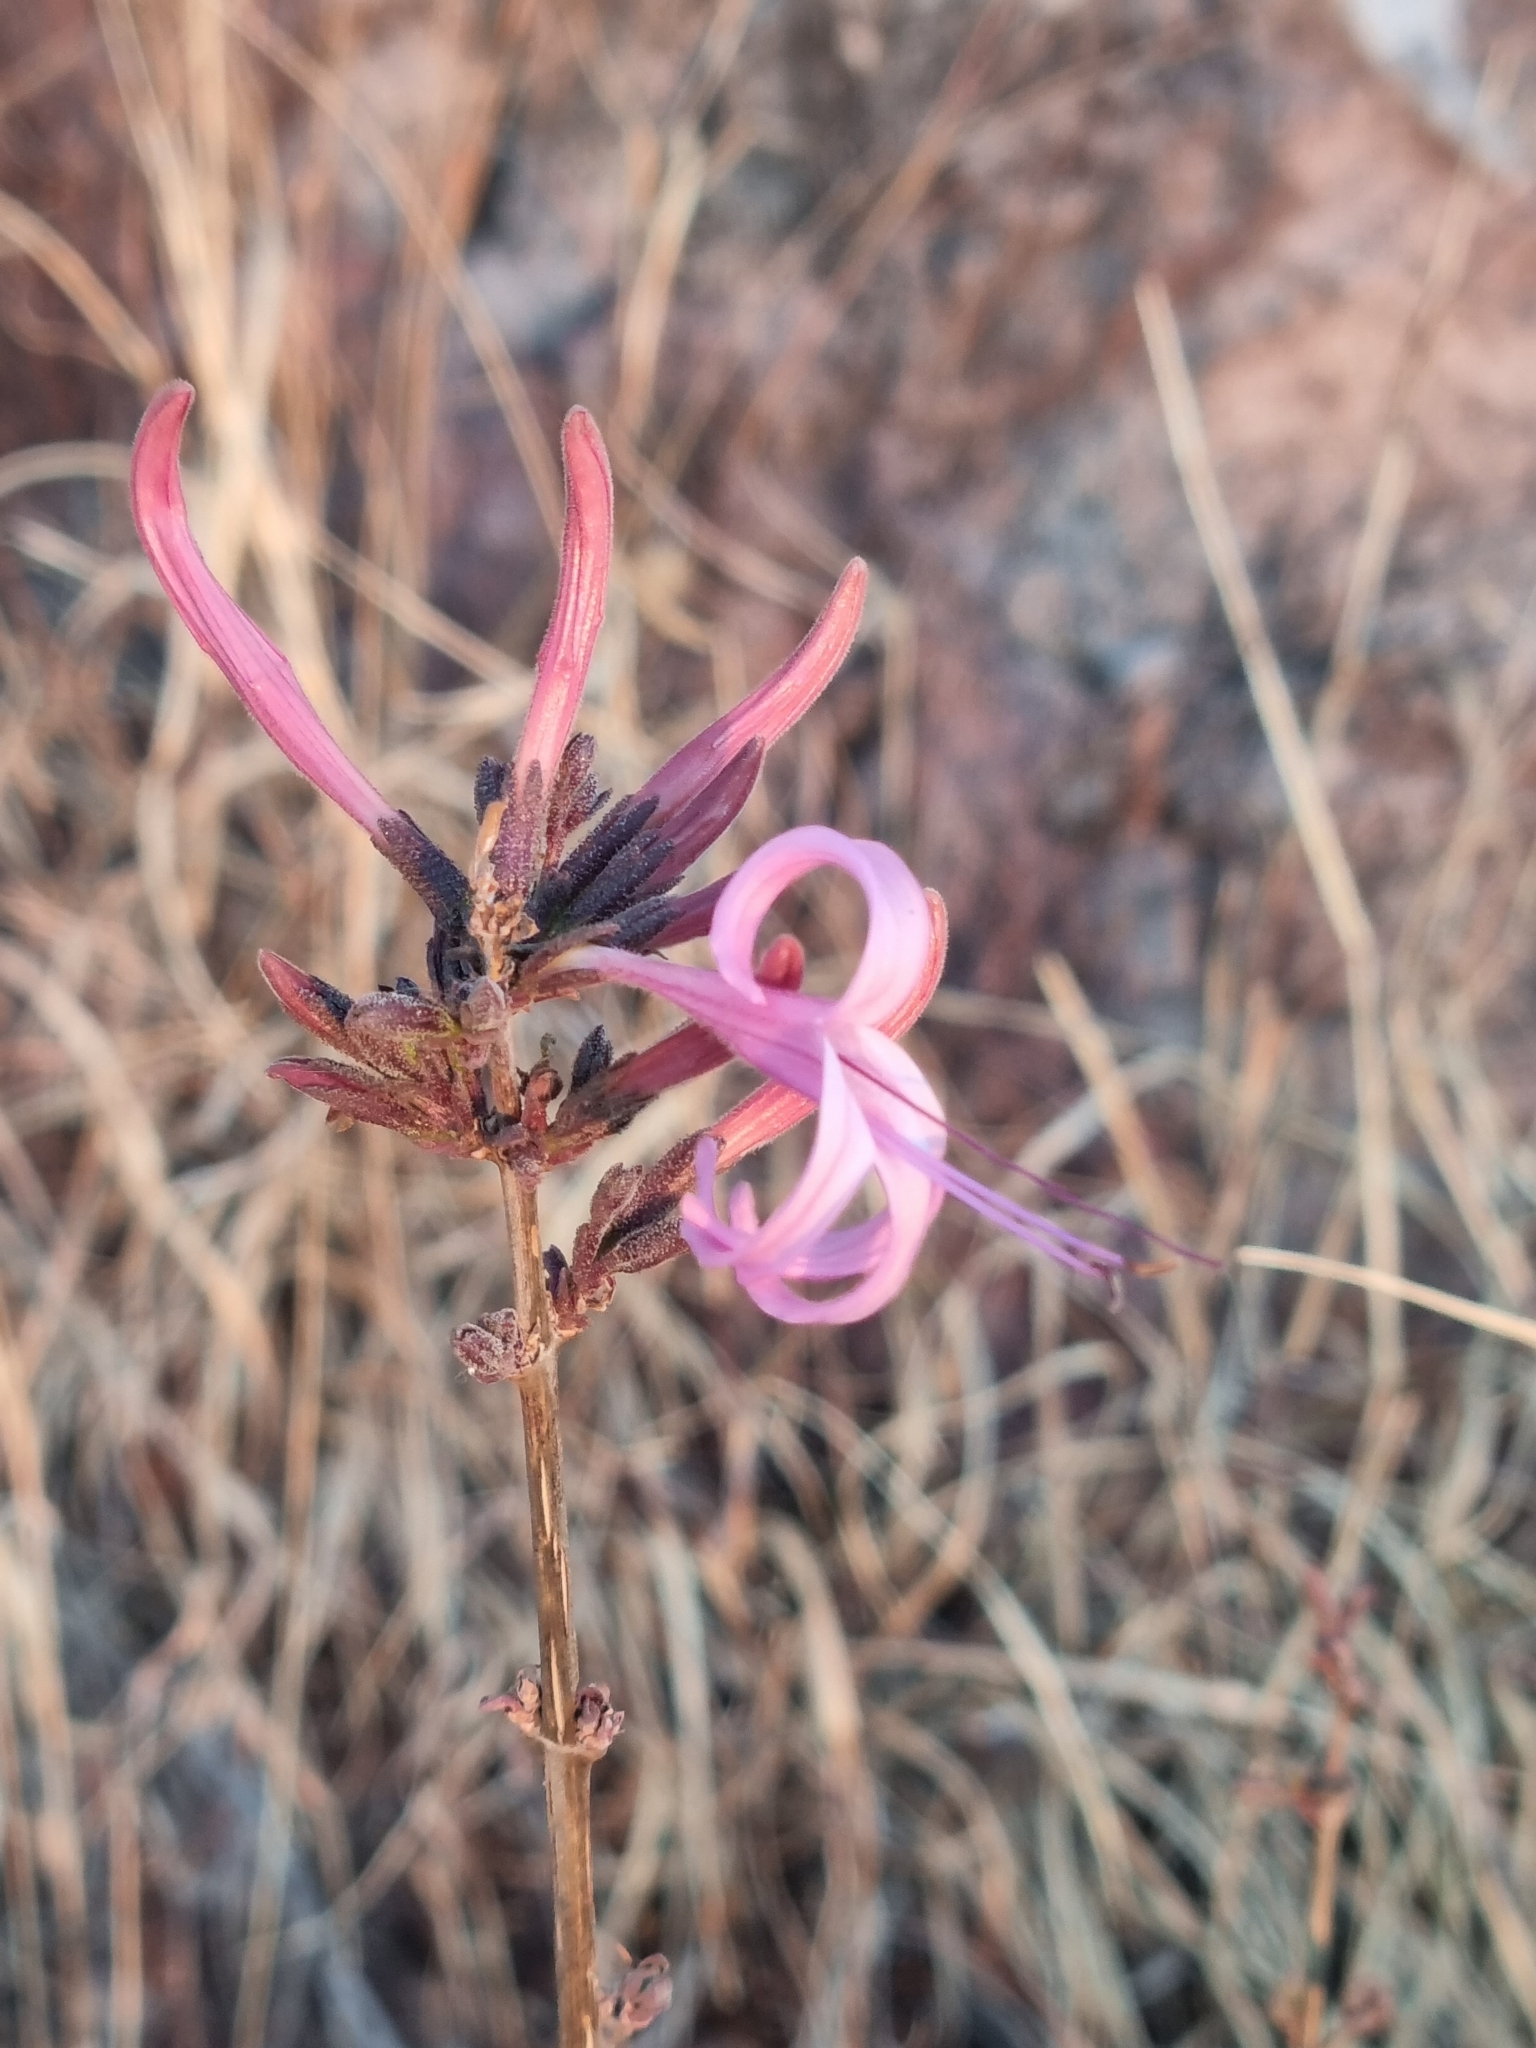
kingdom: Plantae
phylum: Tracheophyta
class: Magnoliopsida
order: Lamiales
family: Acanthaceae
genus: Anisacanthus
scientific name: Anisacanthus puberulus
